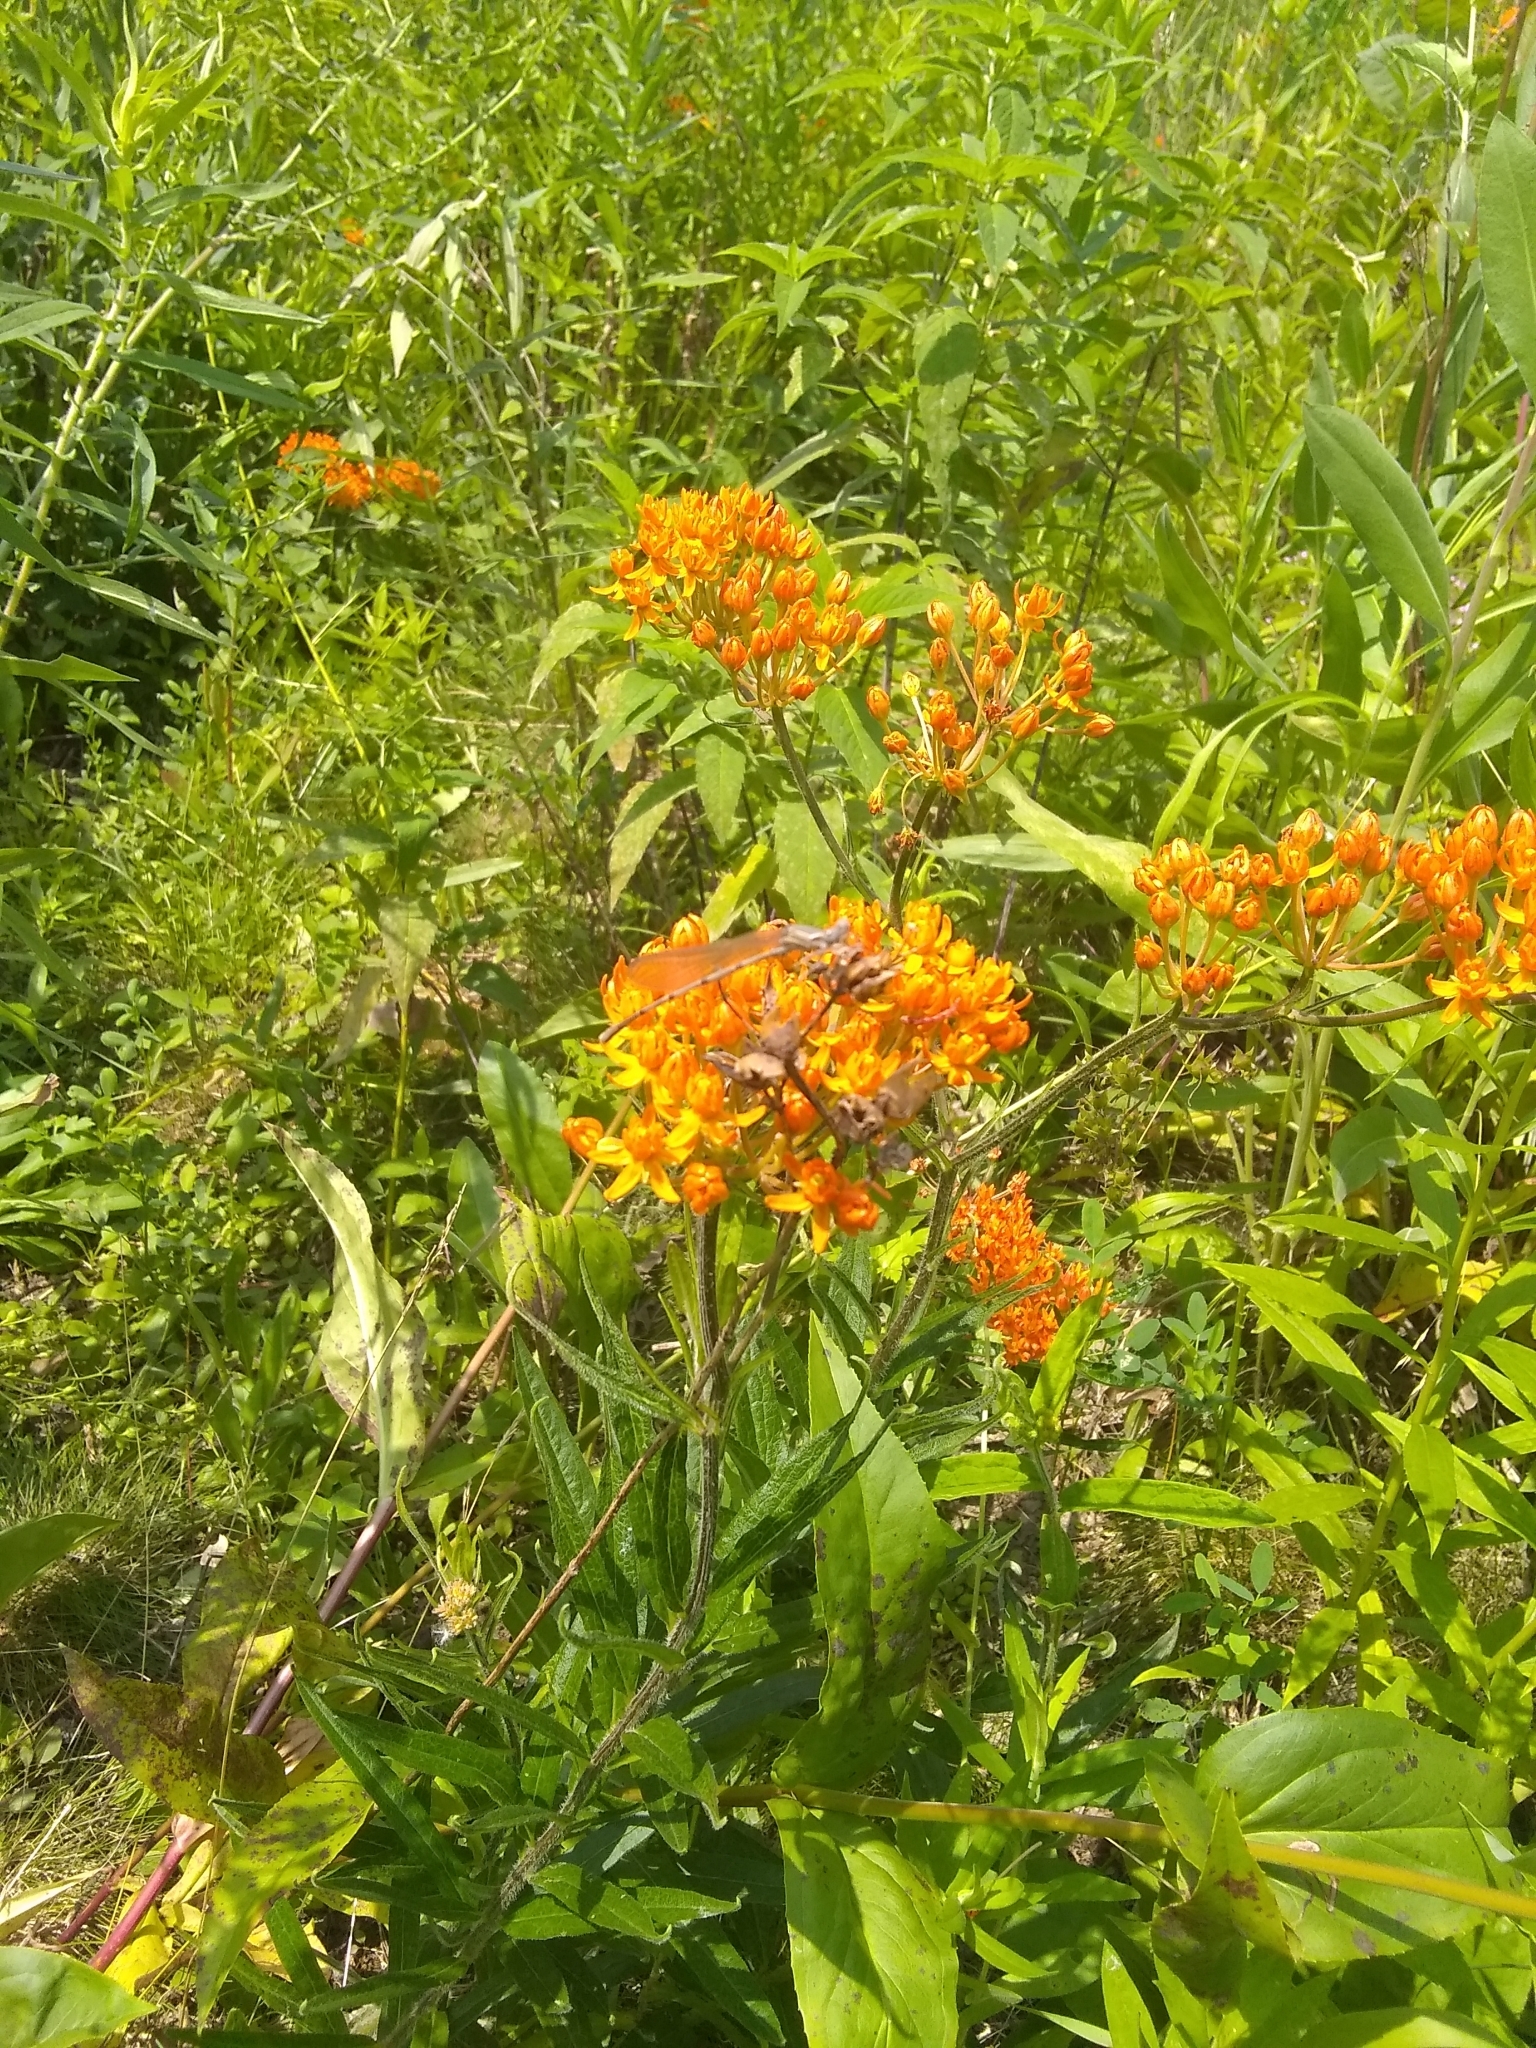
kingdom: Plantae
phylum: Tracheophyta
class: Magnoliopsida
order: Gentianales
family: Apocynaceae
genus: Asclepias
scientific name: Asclepias tuberosa
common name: Butterfly milkweed
